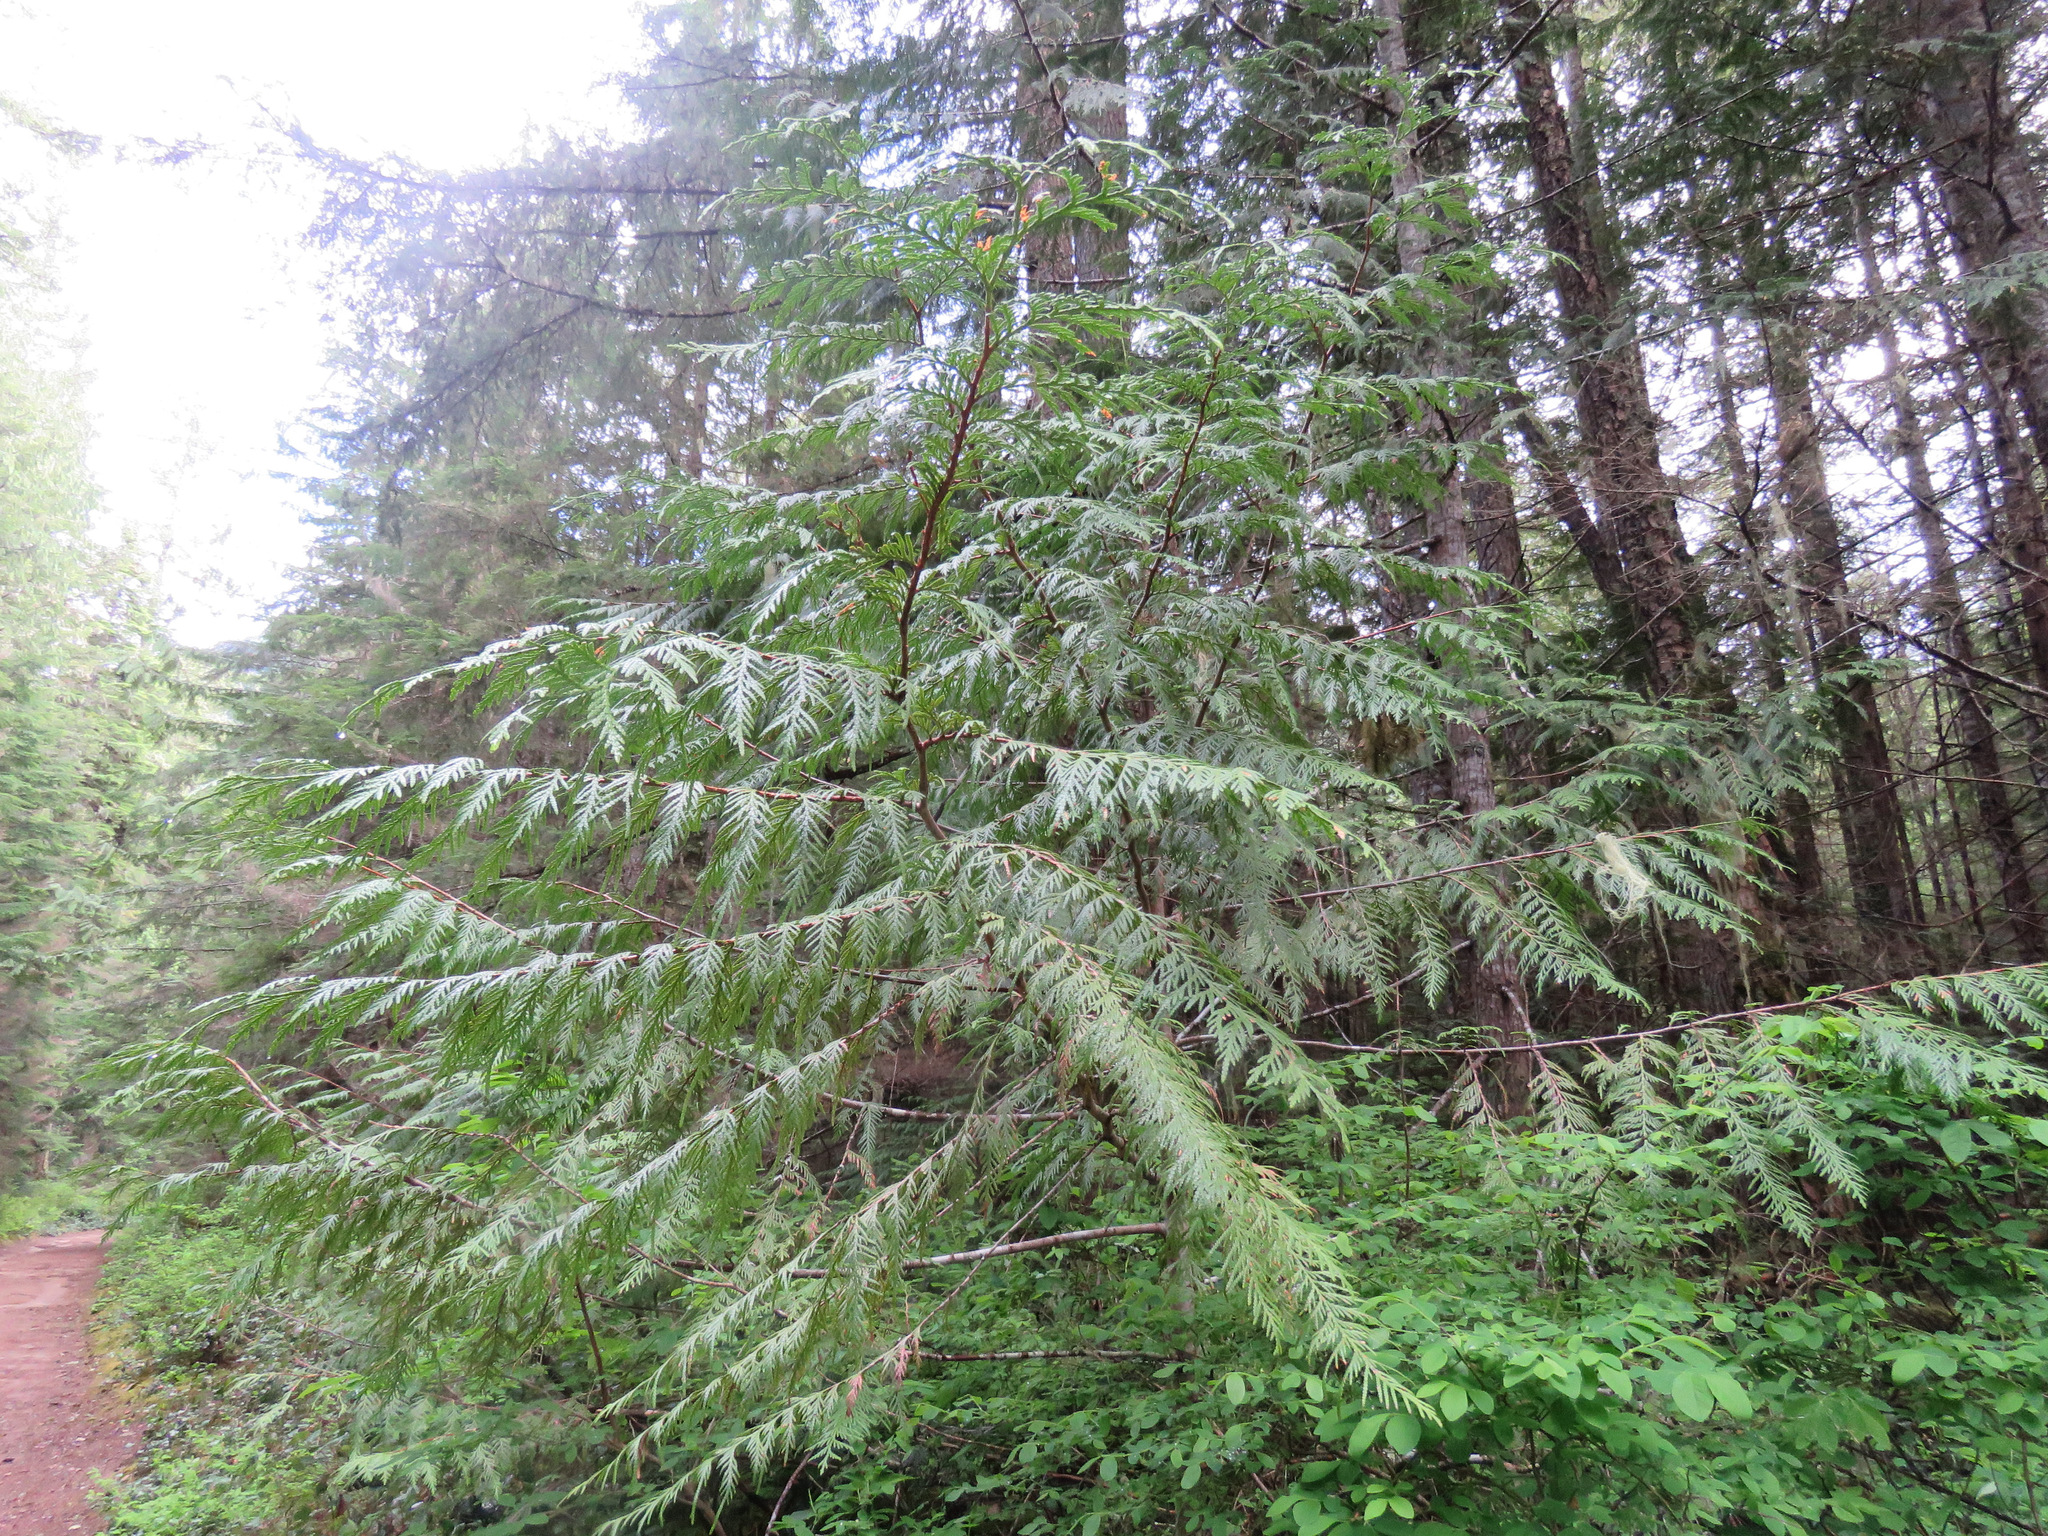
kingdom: Plantae
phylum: Tracheophyta
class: Pinopsida
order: Pinales
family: Cupressaceae
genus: Thuja
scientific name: Thuja plicata
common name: Western red-cedar
